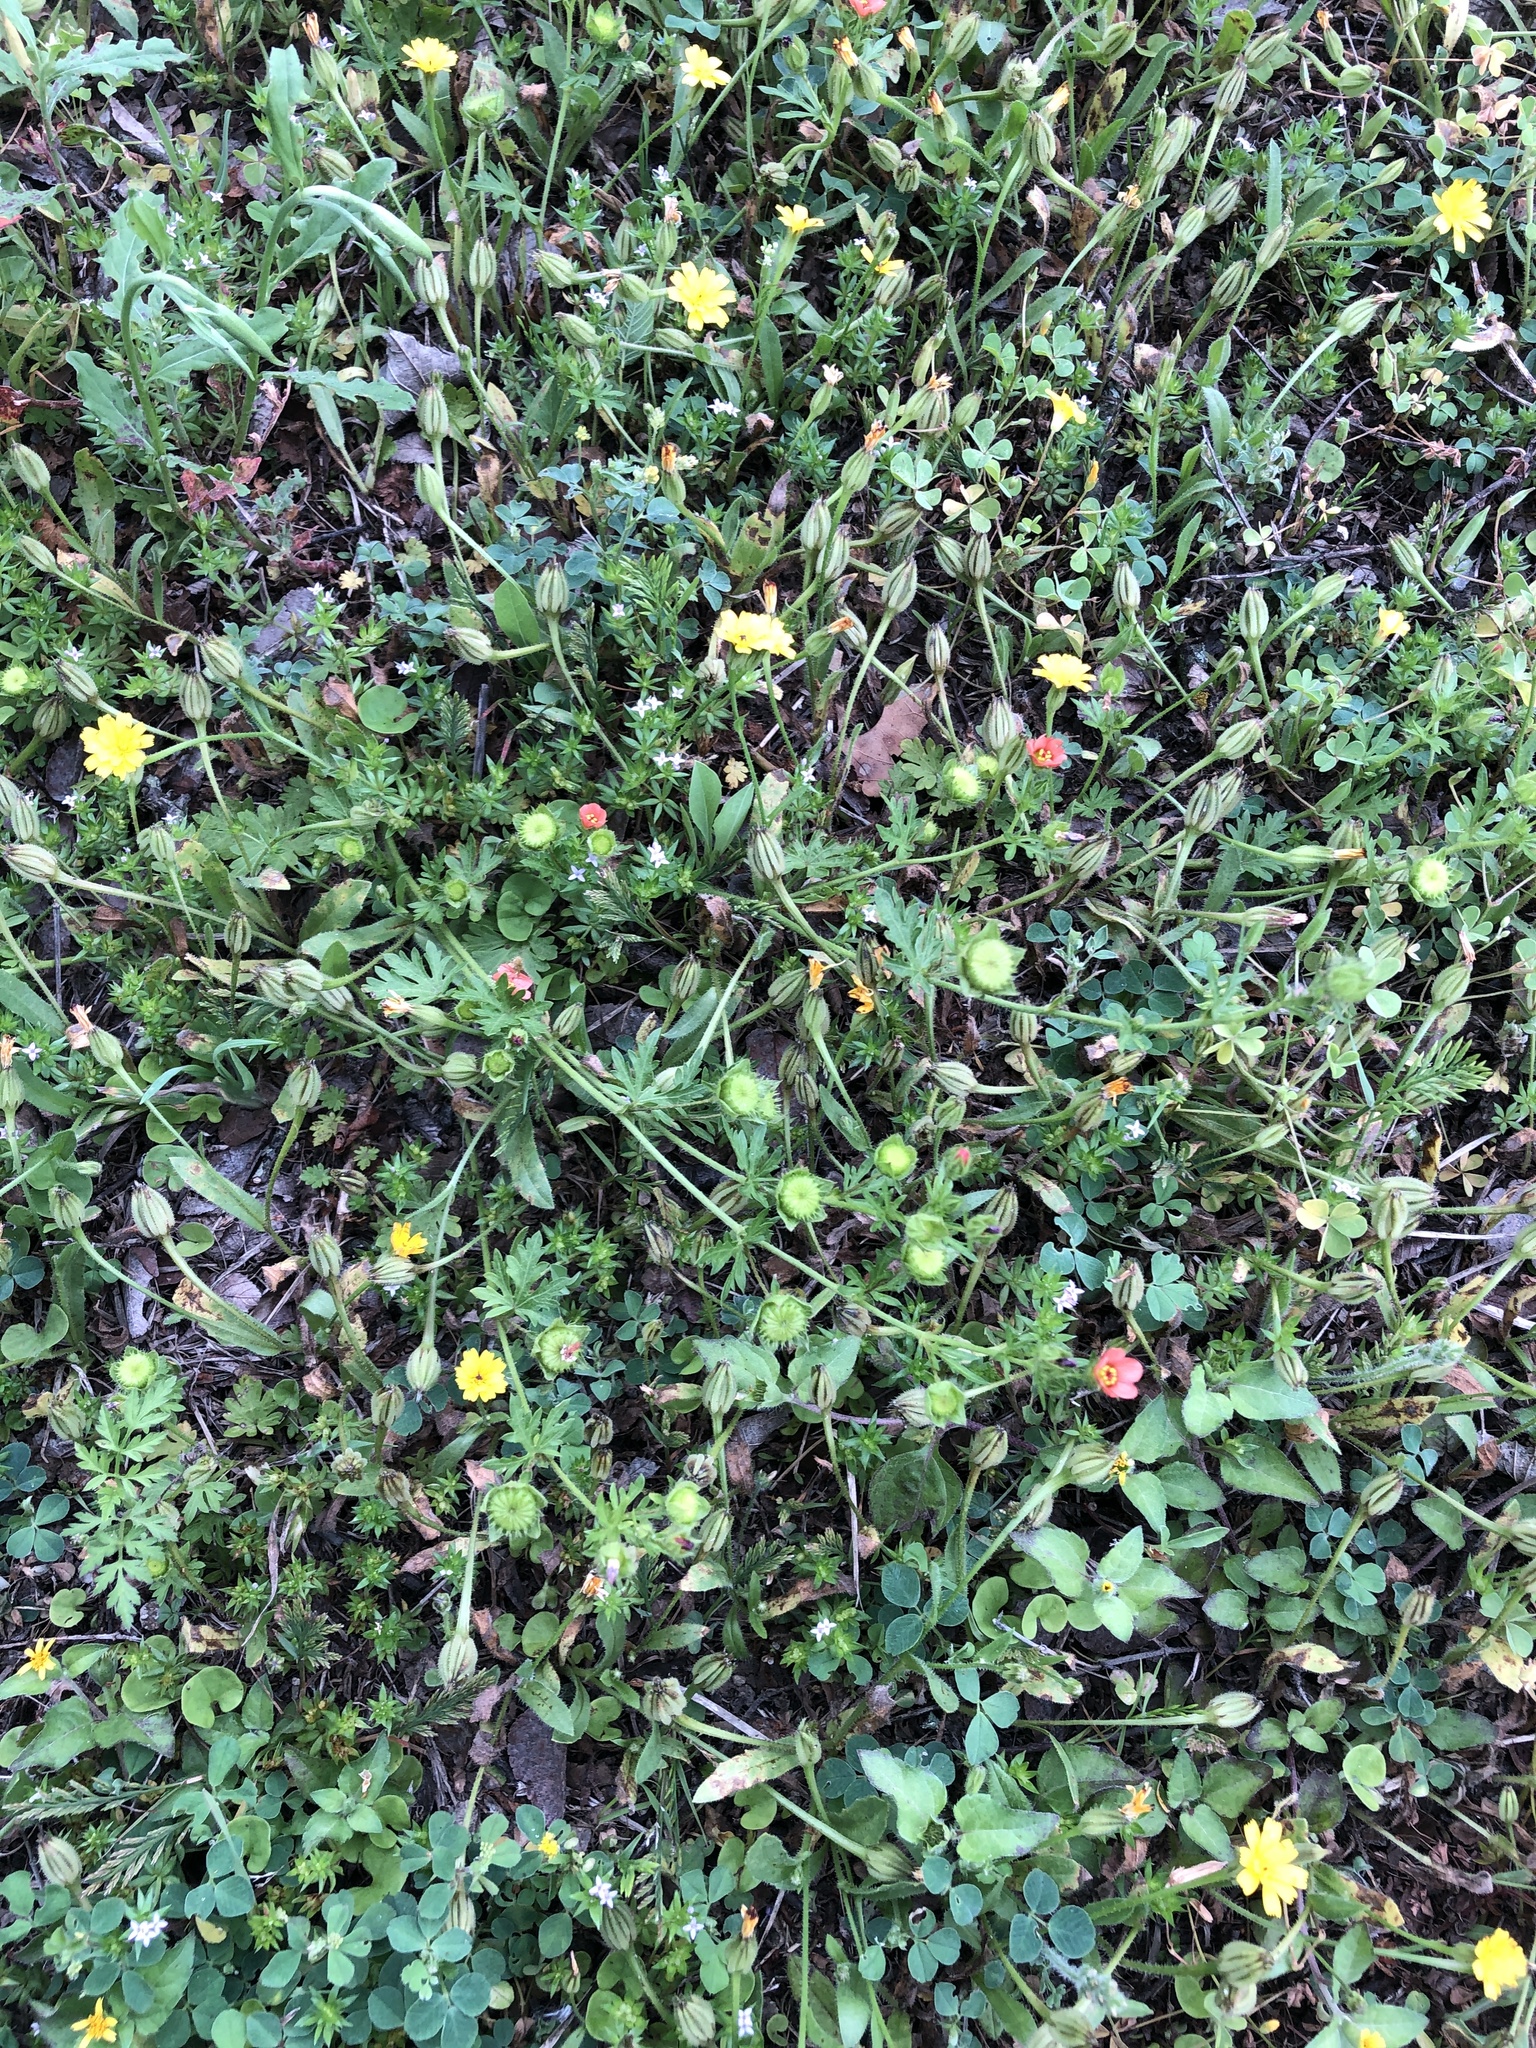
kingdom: Plantae
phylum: Tracheophyta
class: Magnoliopsida
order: Malvales
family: Malvaceae
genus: Modiola
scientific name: Modiola caroliniana
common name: Carolina bristlemallow
